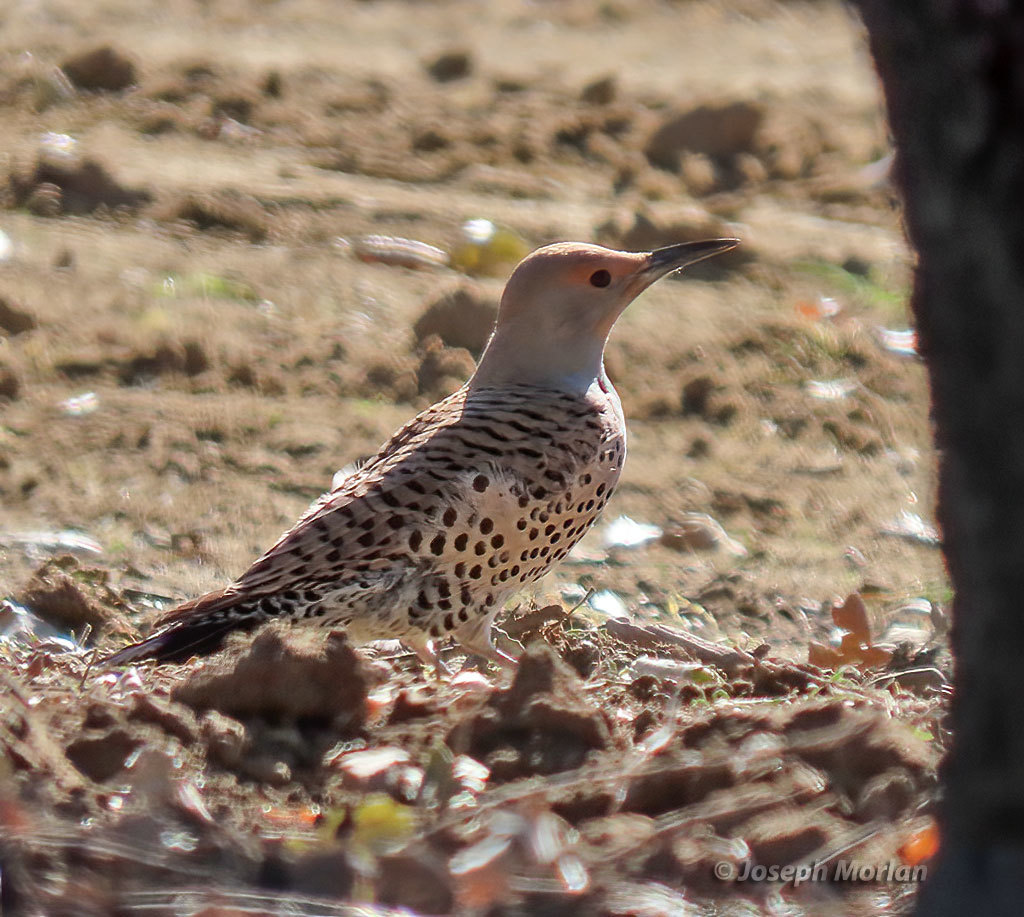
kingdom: Animalia
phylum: Chordata
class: Aves
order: Piciformes
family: Picidae
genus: Colaptes
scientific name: Colaptes auratus
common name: Northern flicker
